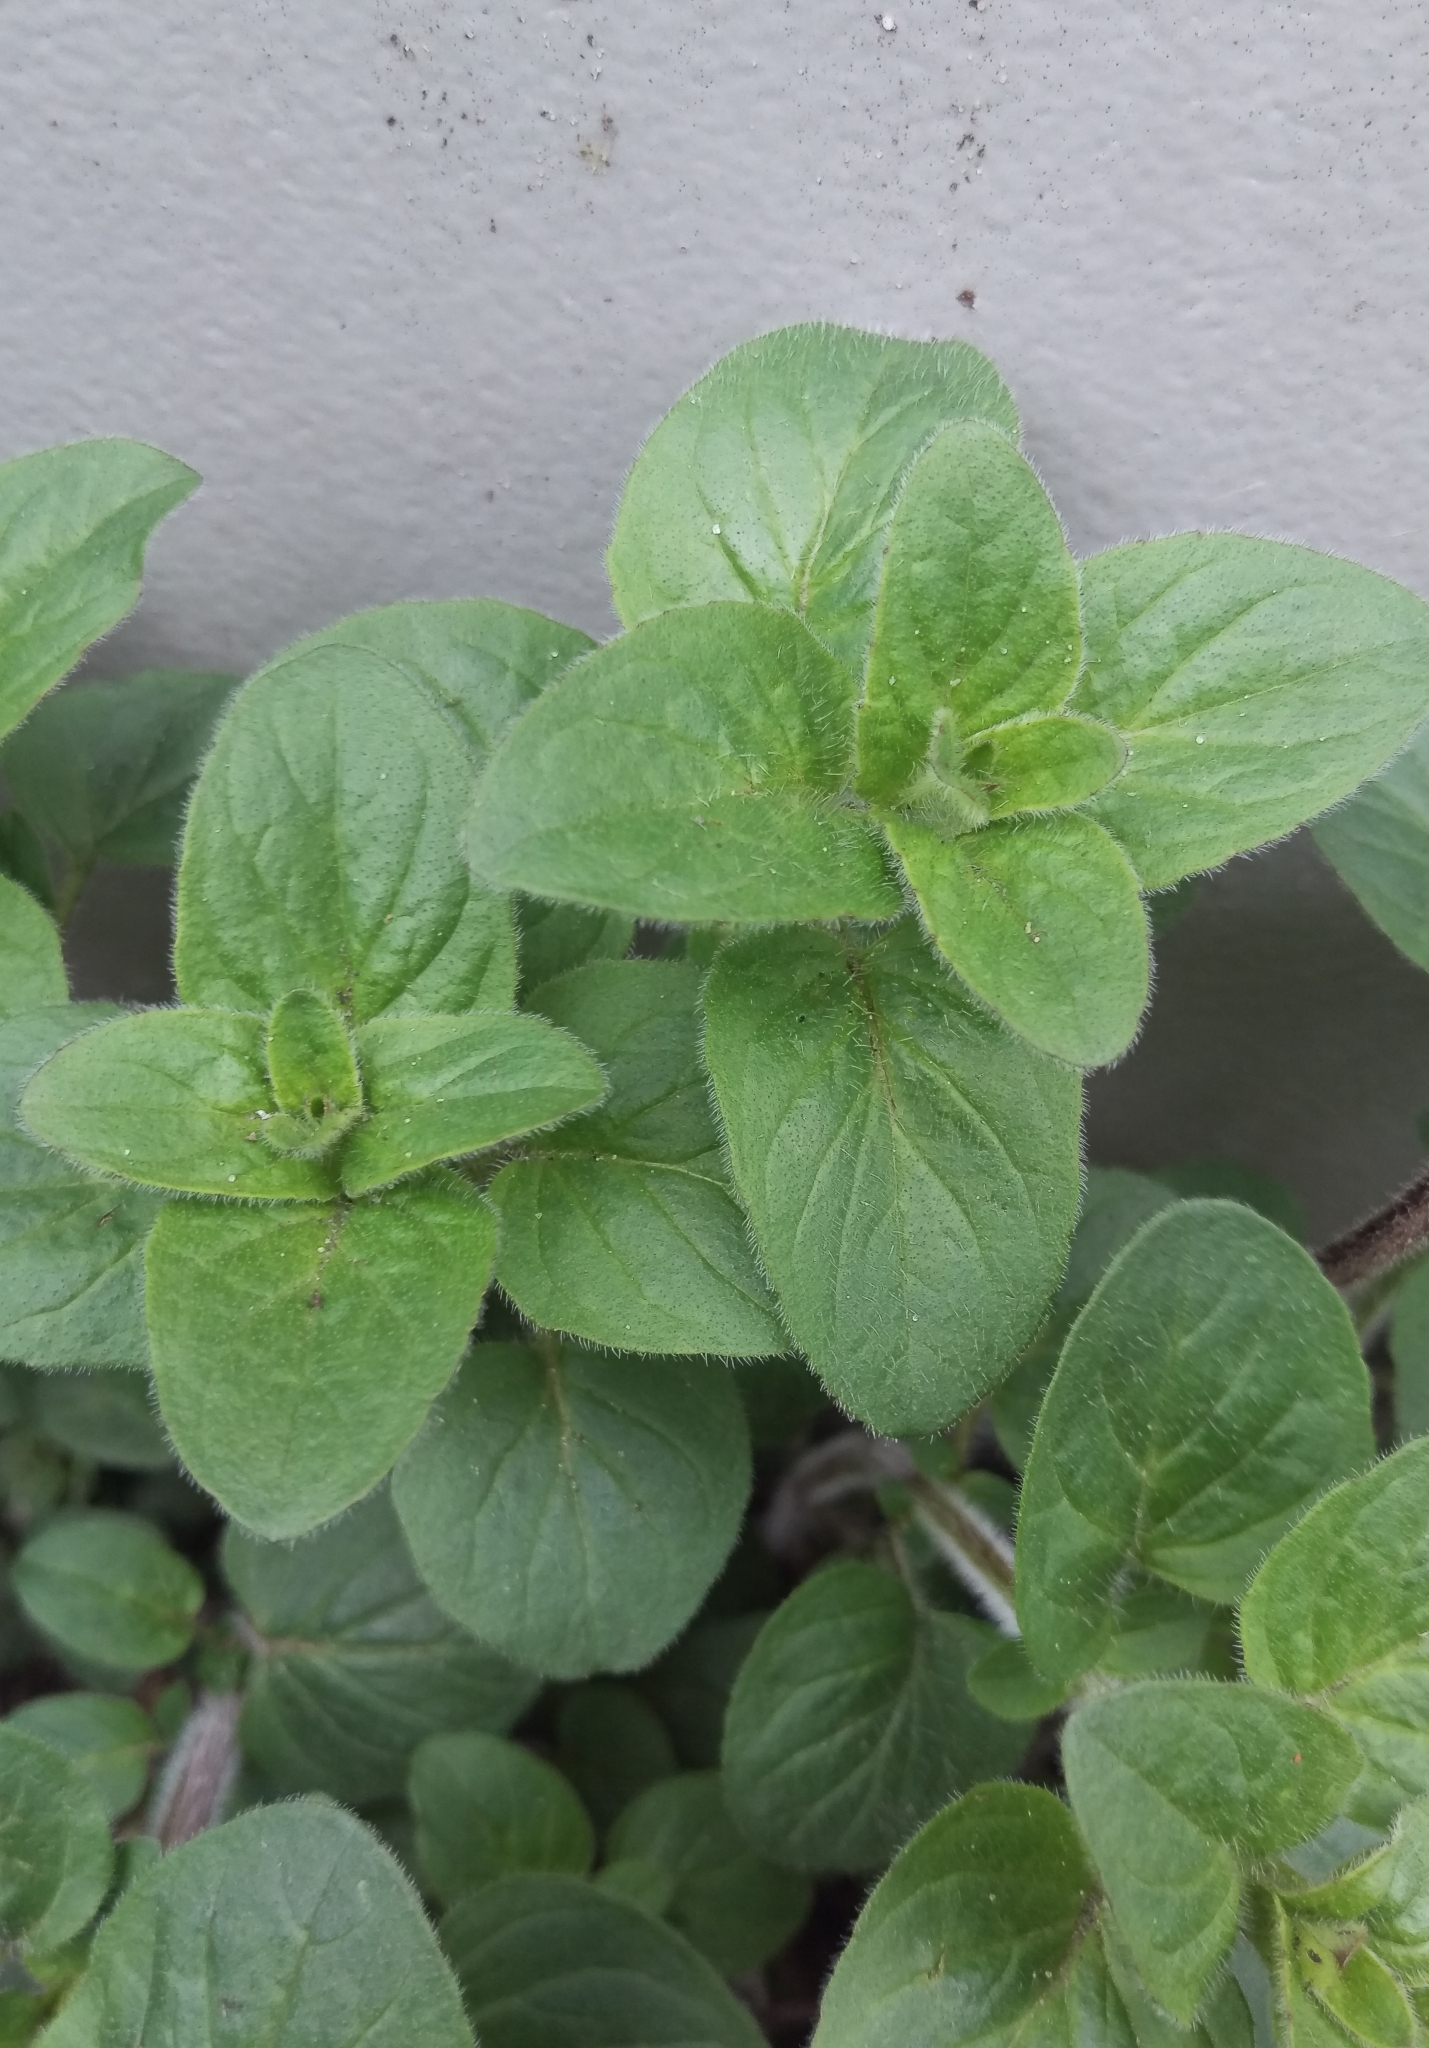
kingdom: Plantae
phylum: Tracheophyta
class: Magnoliopsida
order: Lamiales
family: Lamiaceae
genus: Origanum
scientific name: Origanum vulgare
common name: Wild marjoram
